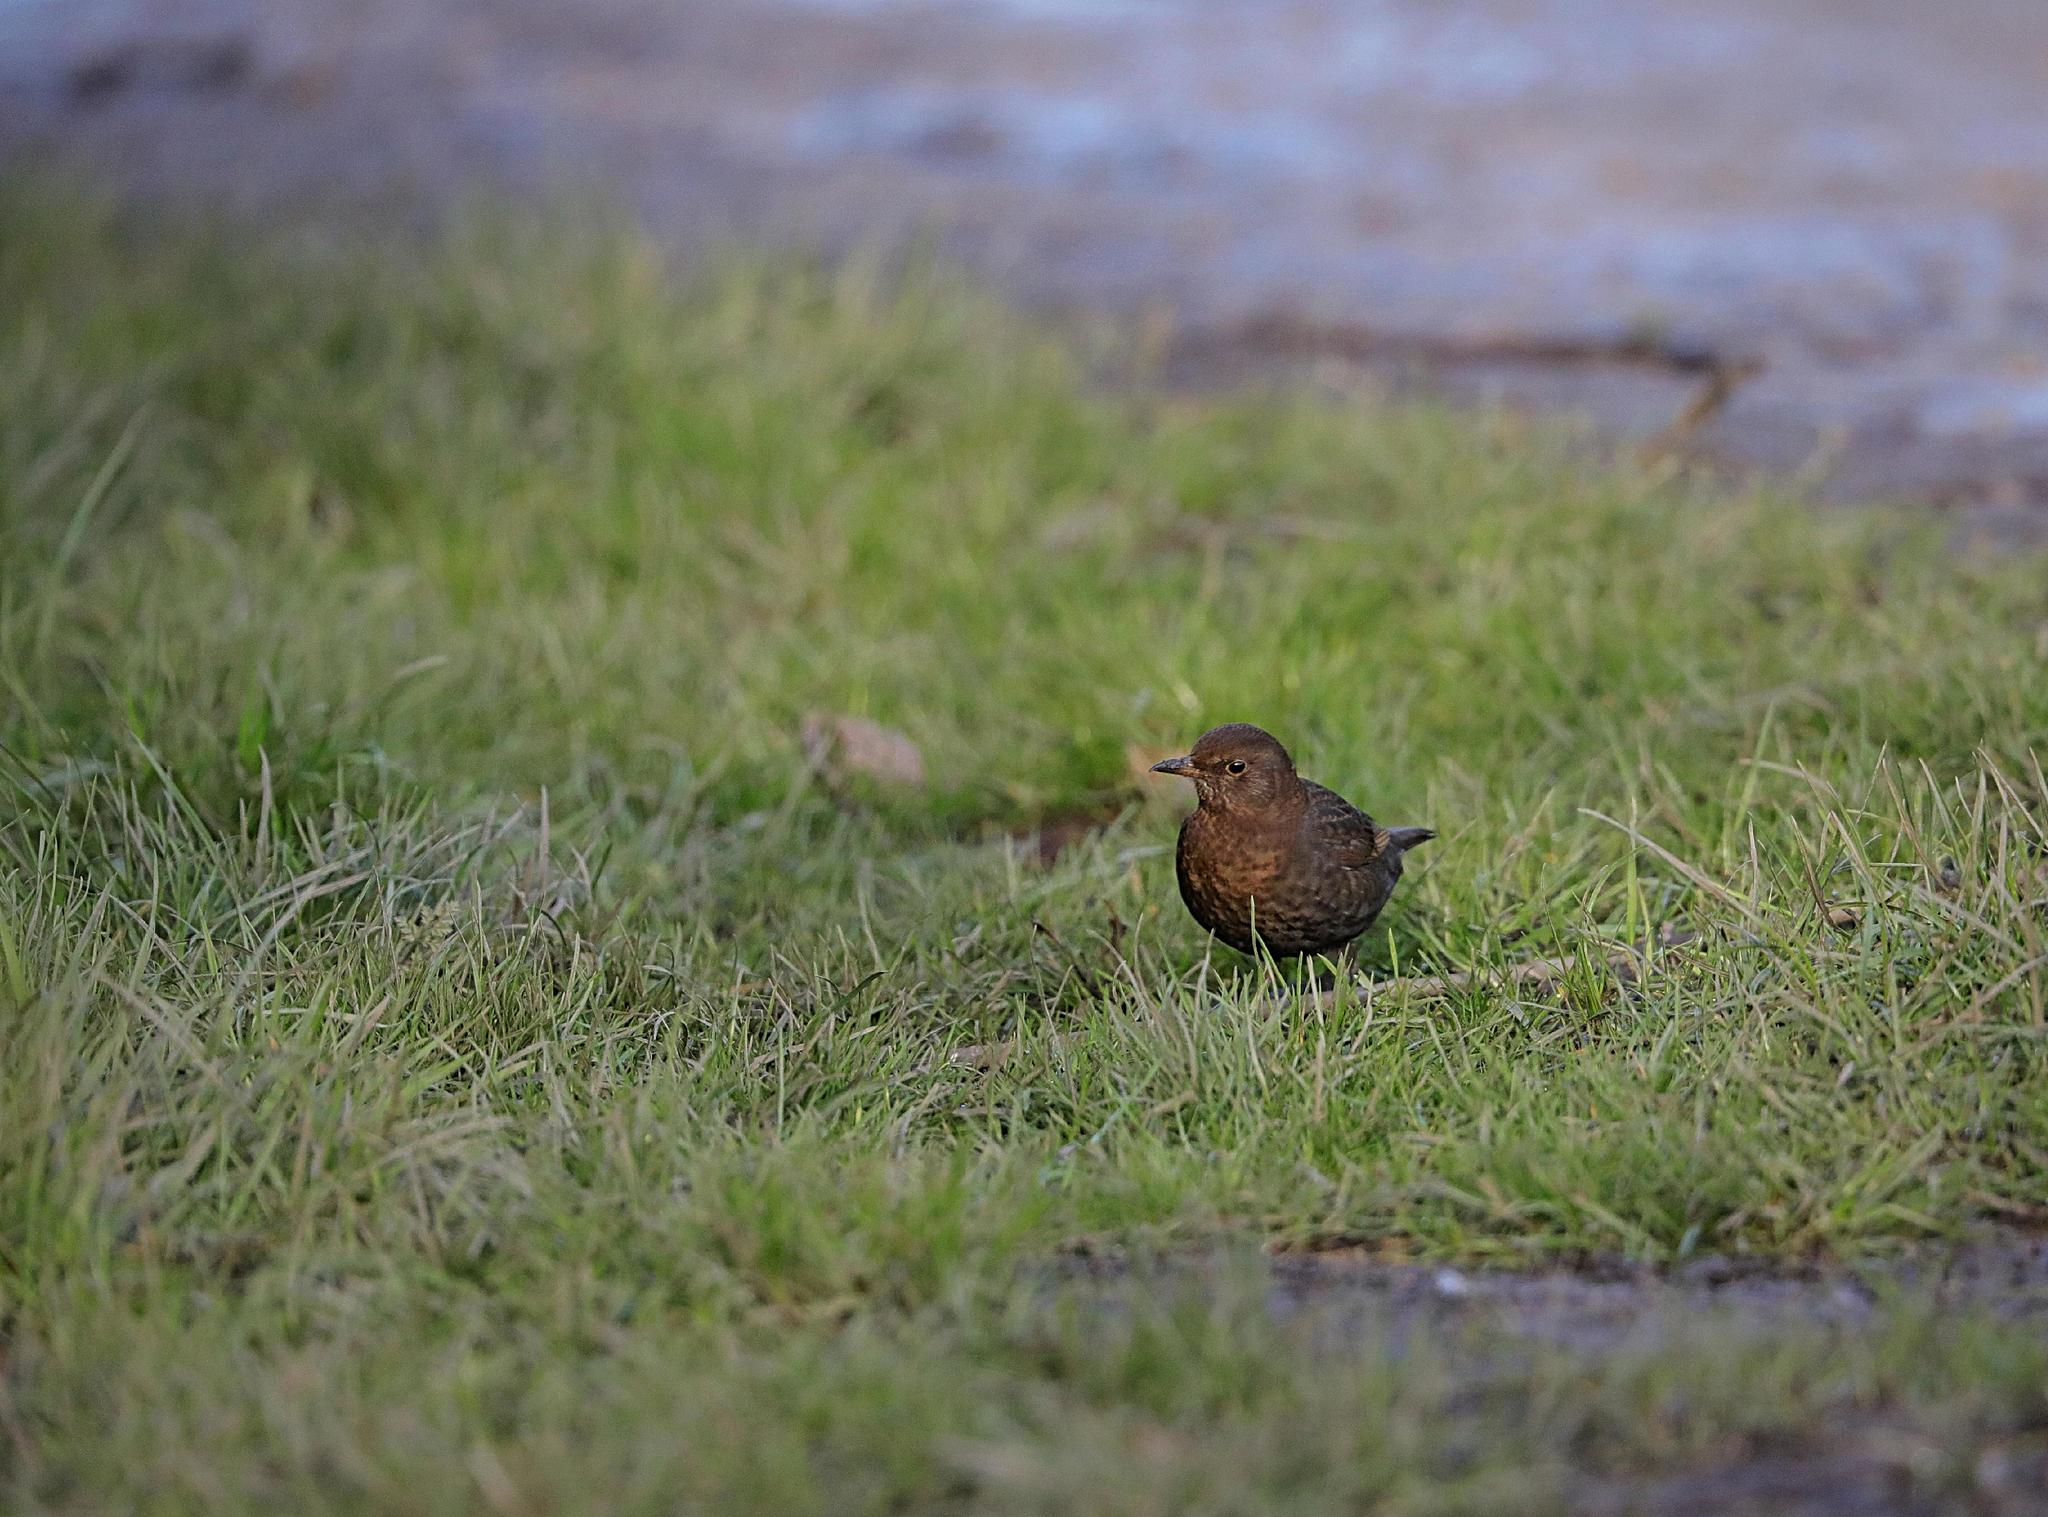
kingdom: Animalia
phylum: Chordata
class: Aves
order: Passeriformes
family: Turdidae
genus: Turdus
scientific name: Turdus merula
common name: Common blackbird
